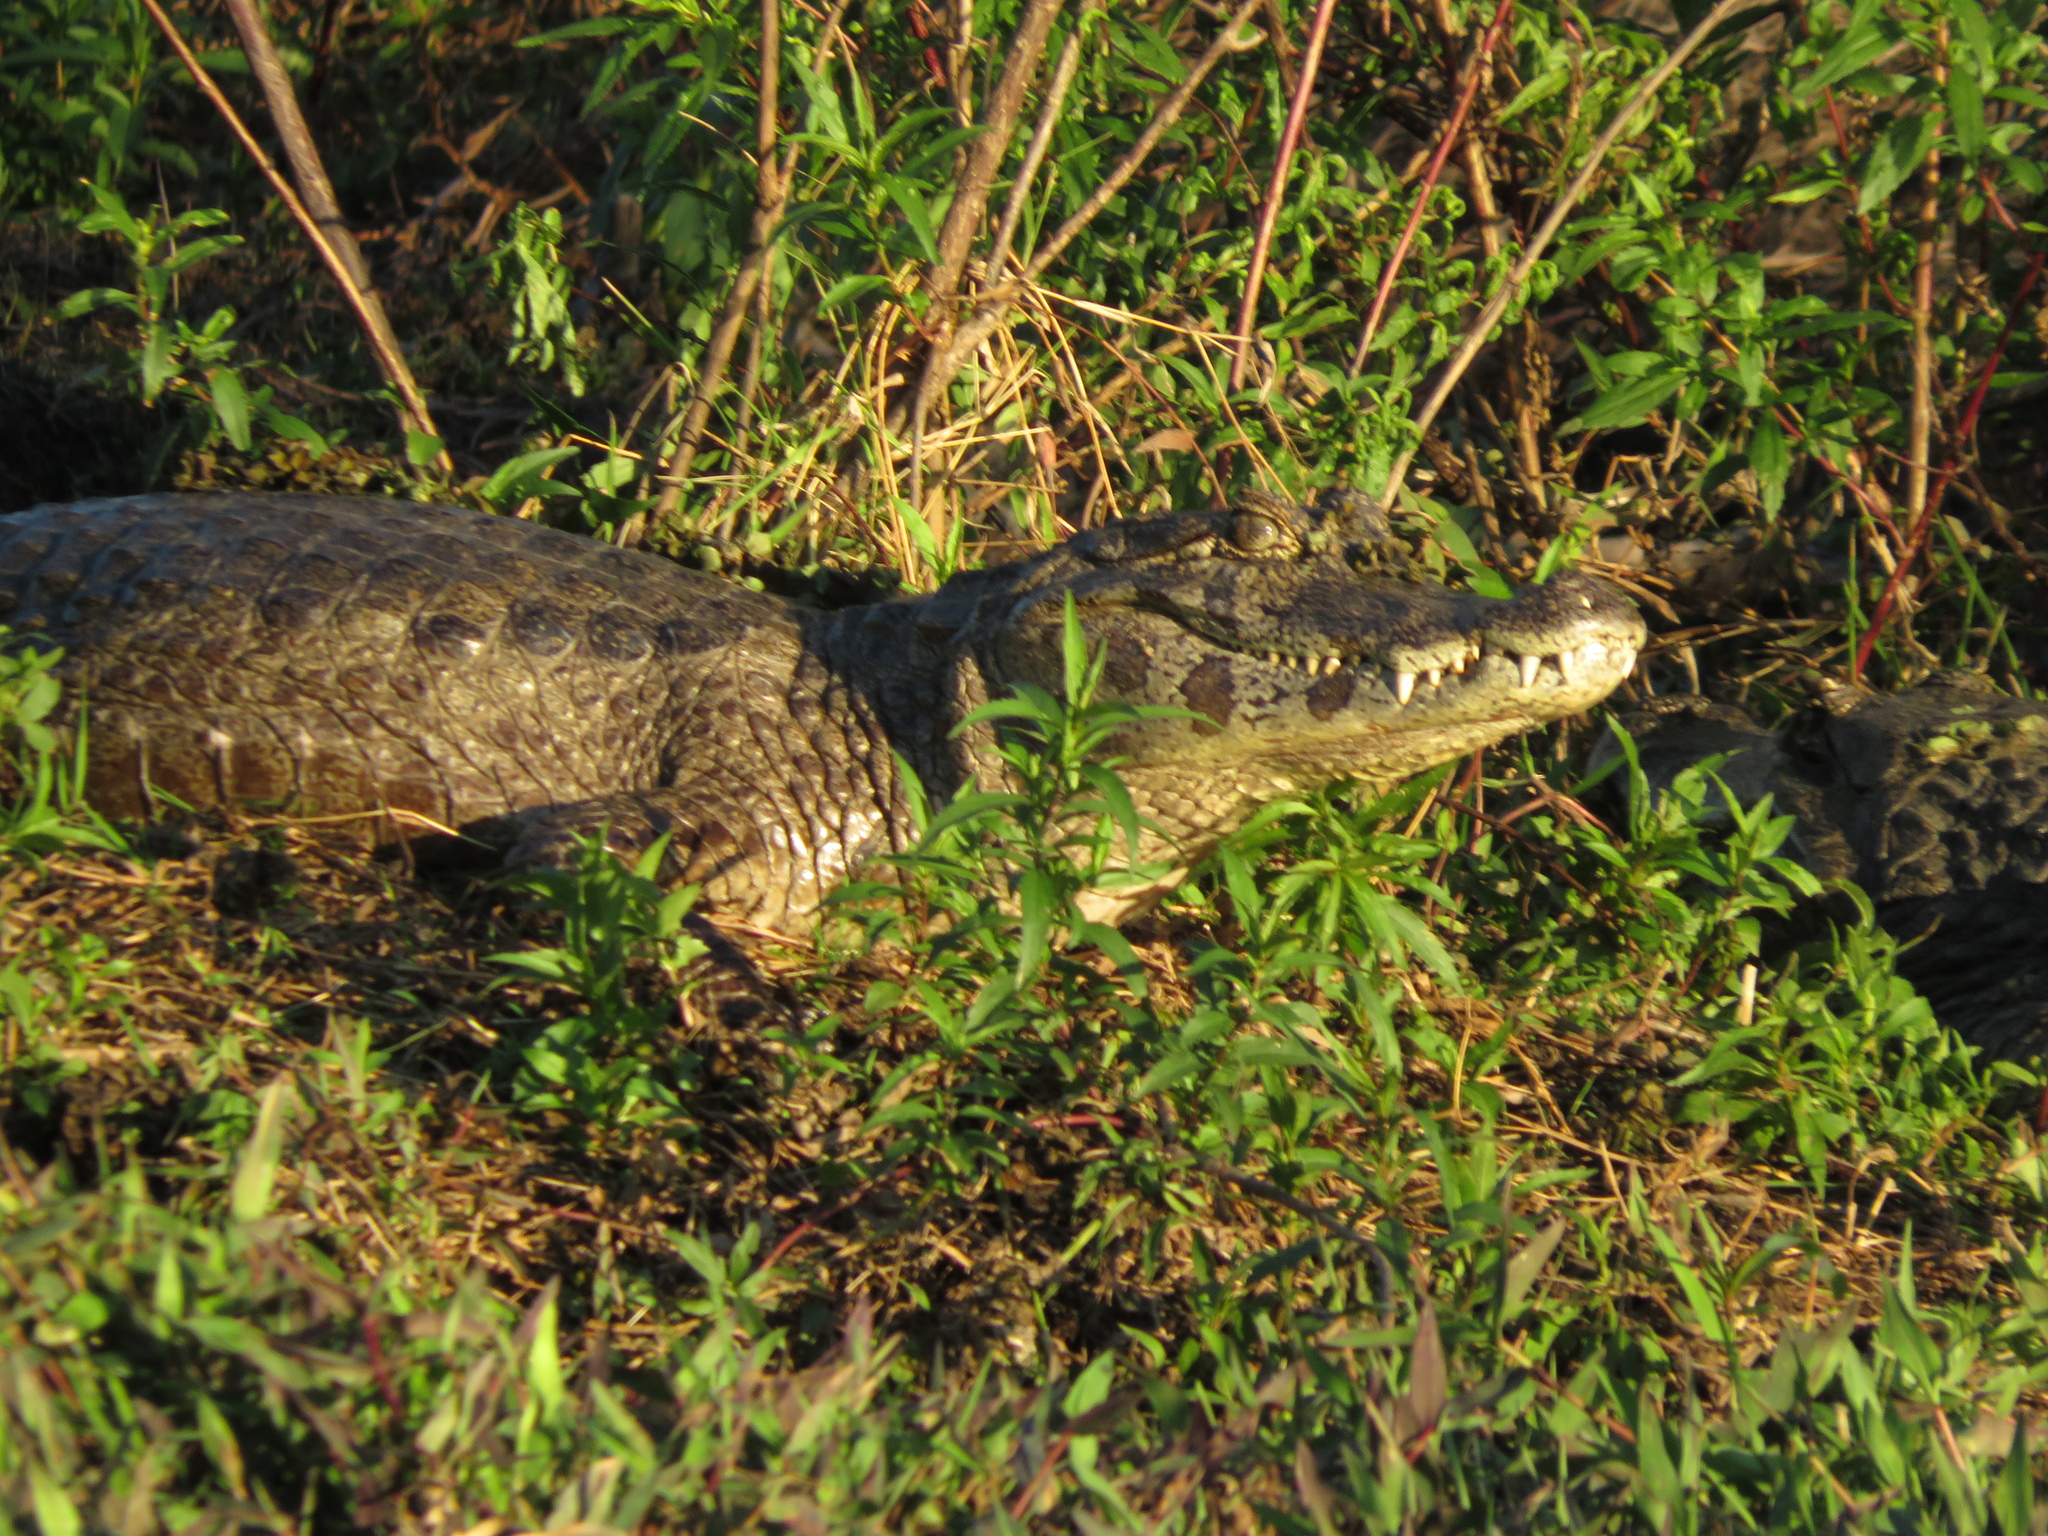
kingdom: Animalia
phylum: Chordata
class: Crocodylia
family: Alligatoridae
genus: Caiman
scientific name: Caiman yacare
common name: Yacare caiman
